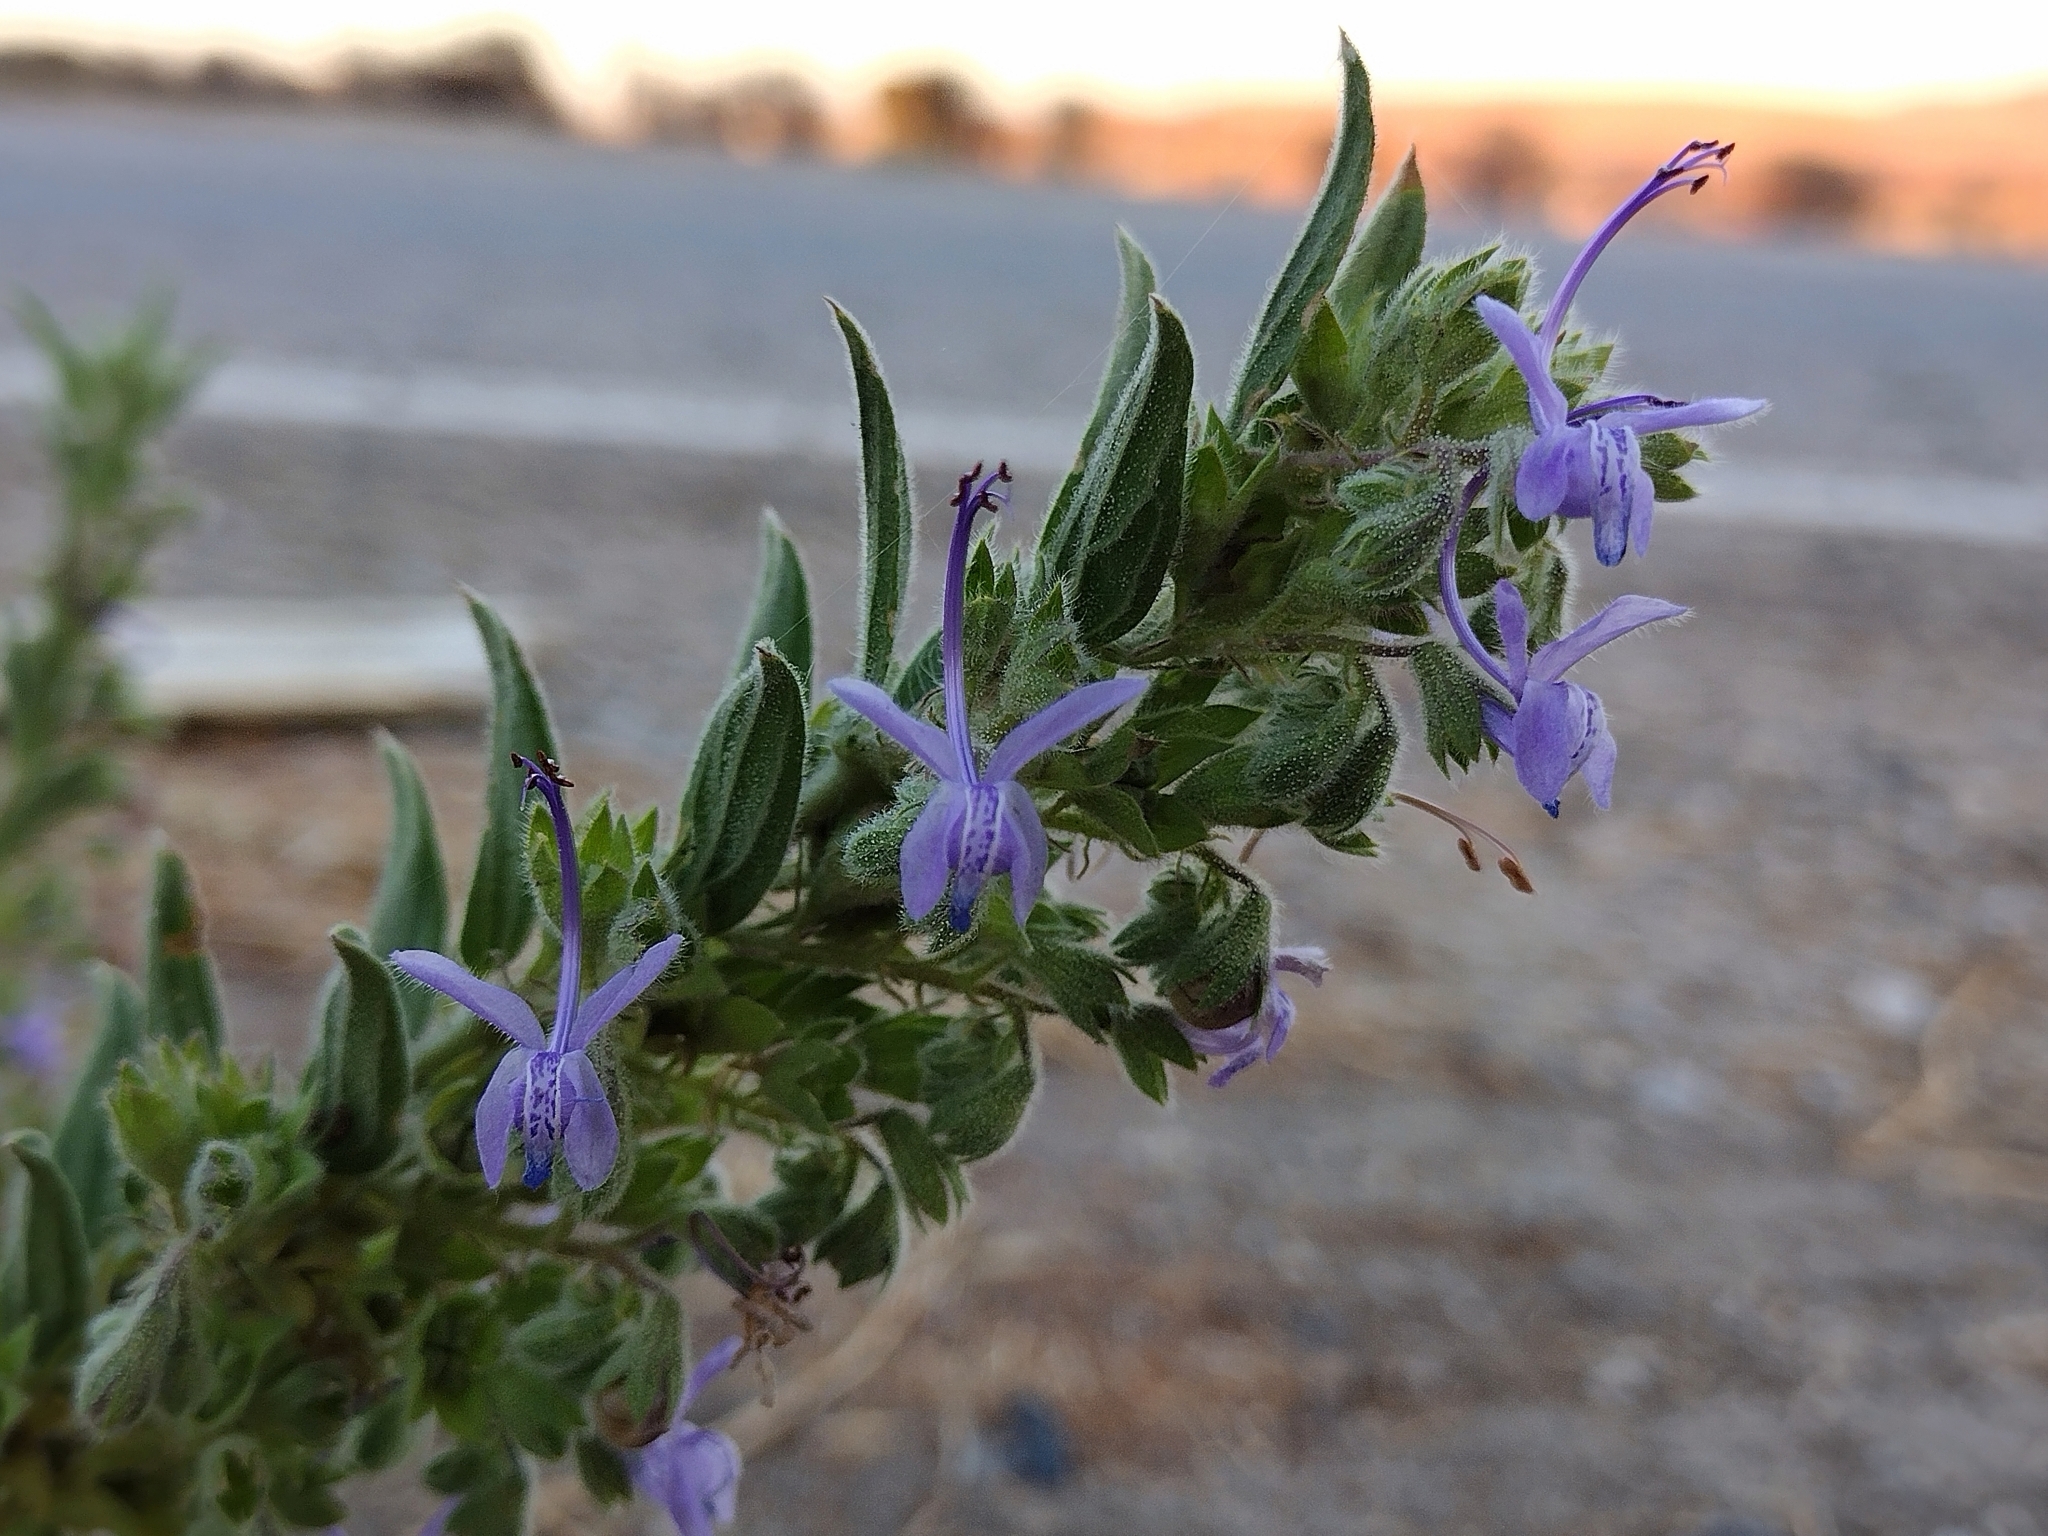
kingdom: Plantae
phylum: Tracheophyta
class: Magnoliopsida
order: Lamiales
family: Lamiaceae
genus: Trichostema
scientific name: Trichostema lanceolatum
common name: Vinegar-weed
